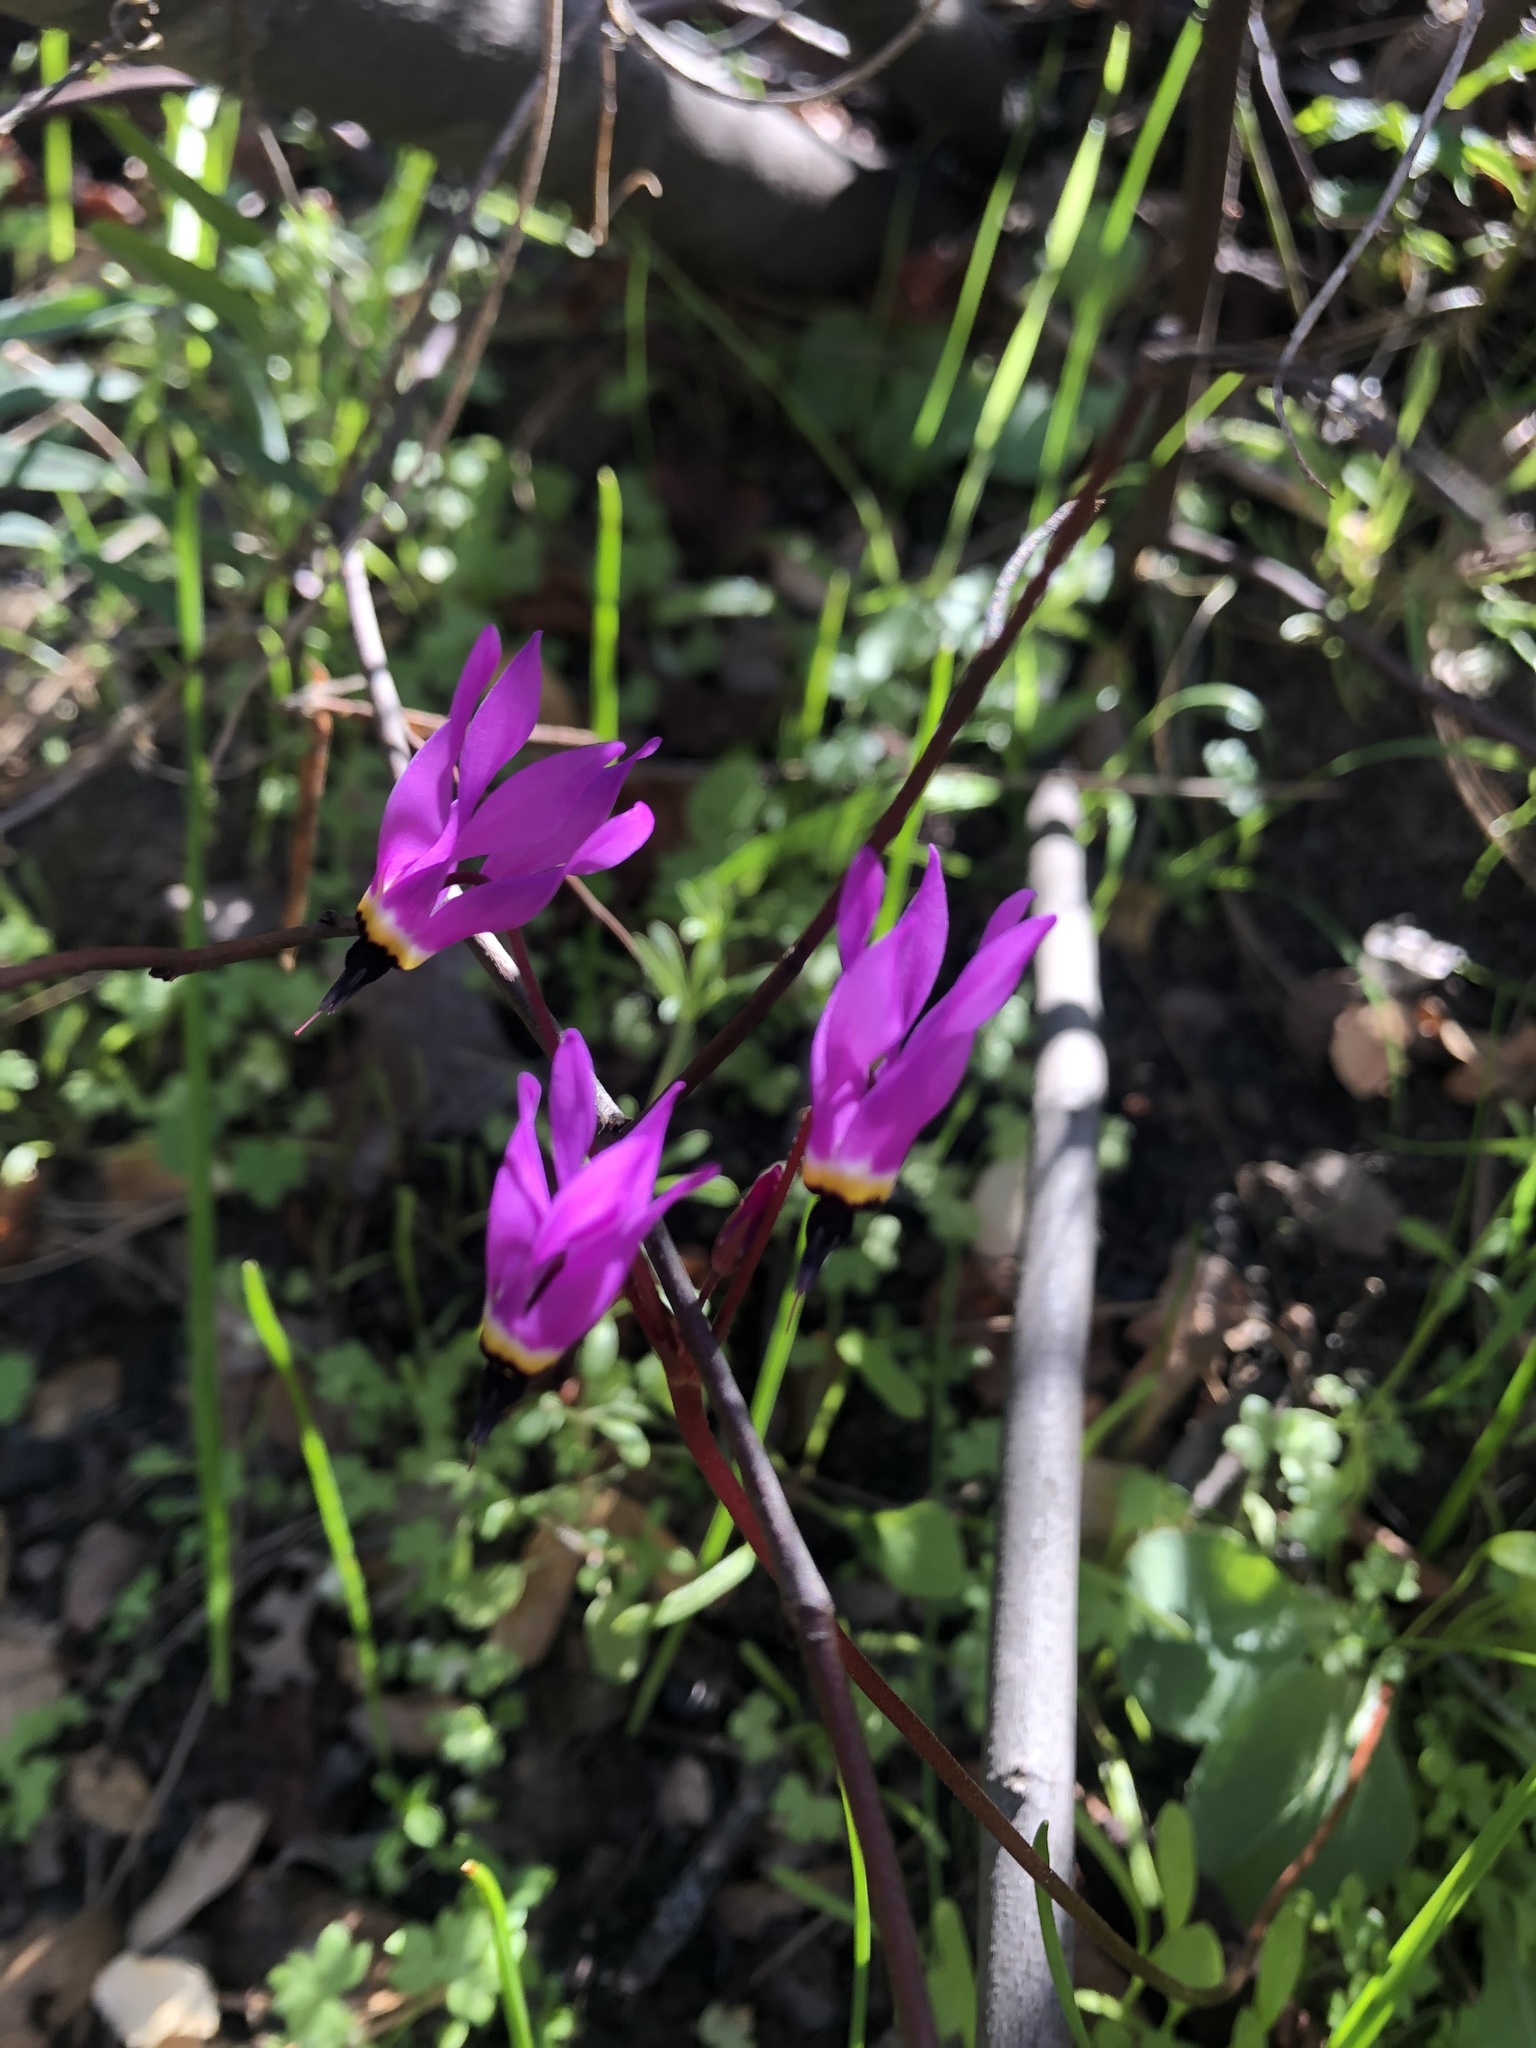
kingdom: Plantae
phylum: Tracheophyta
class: Magnoliopsida
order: Ericales
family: Primulaceae
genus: Dodecatheon
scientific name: Dodecatheon hendersonii
